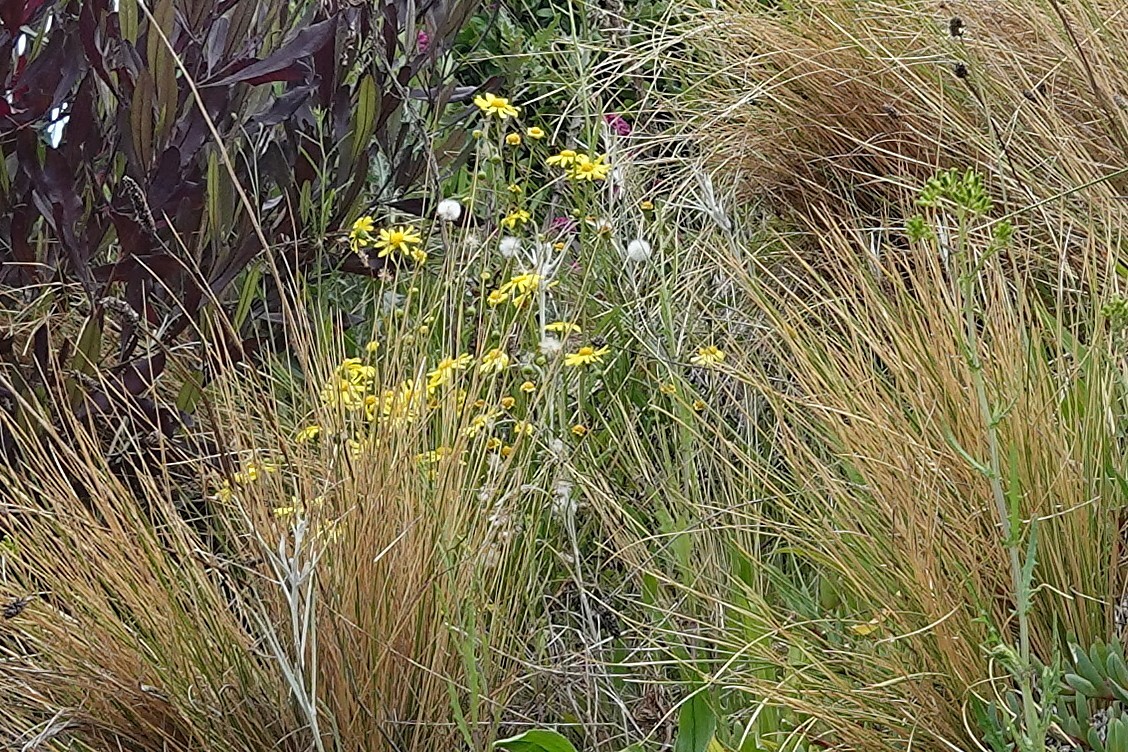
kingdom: Plantae
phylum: Tracheophyta
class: Magnoliopsida
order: Asterales
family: Asteraceae
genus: Senecio
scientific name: Senecio skirrhodon
